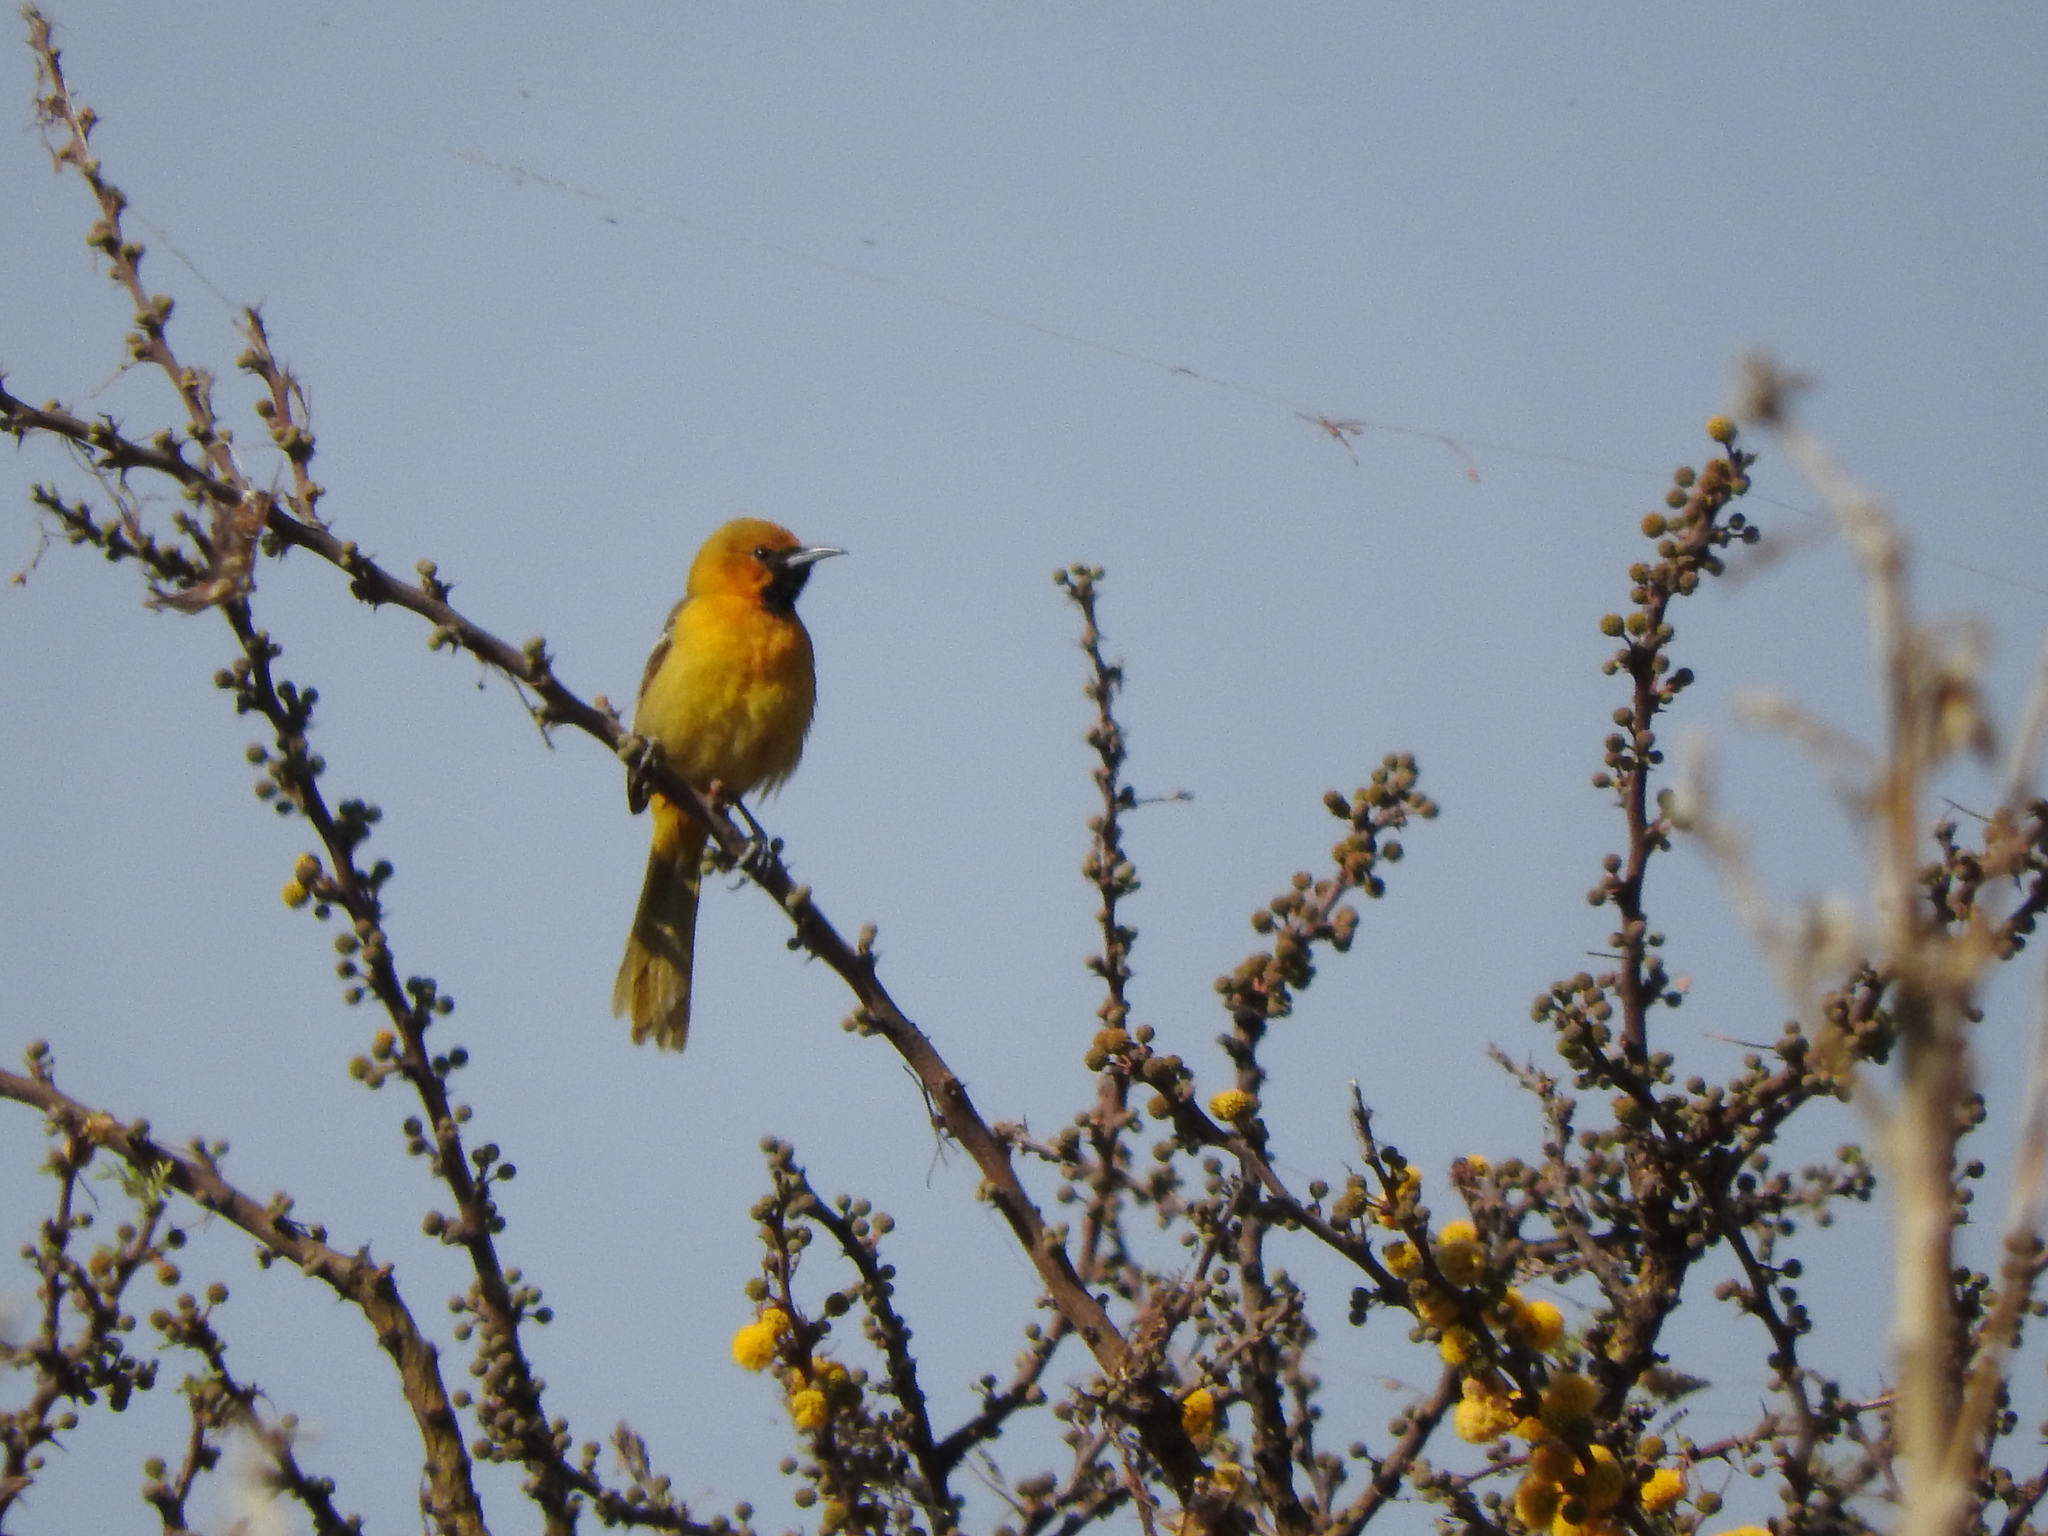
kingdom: Animalia
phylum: Chordata
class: Aves
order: Passeriformes
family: Icteridae
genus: Icterus
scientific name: Icterus cucullatus
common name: Hooded oriole
